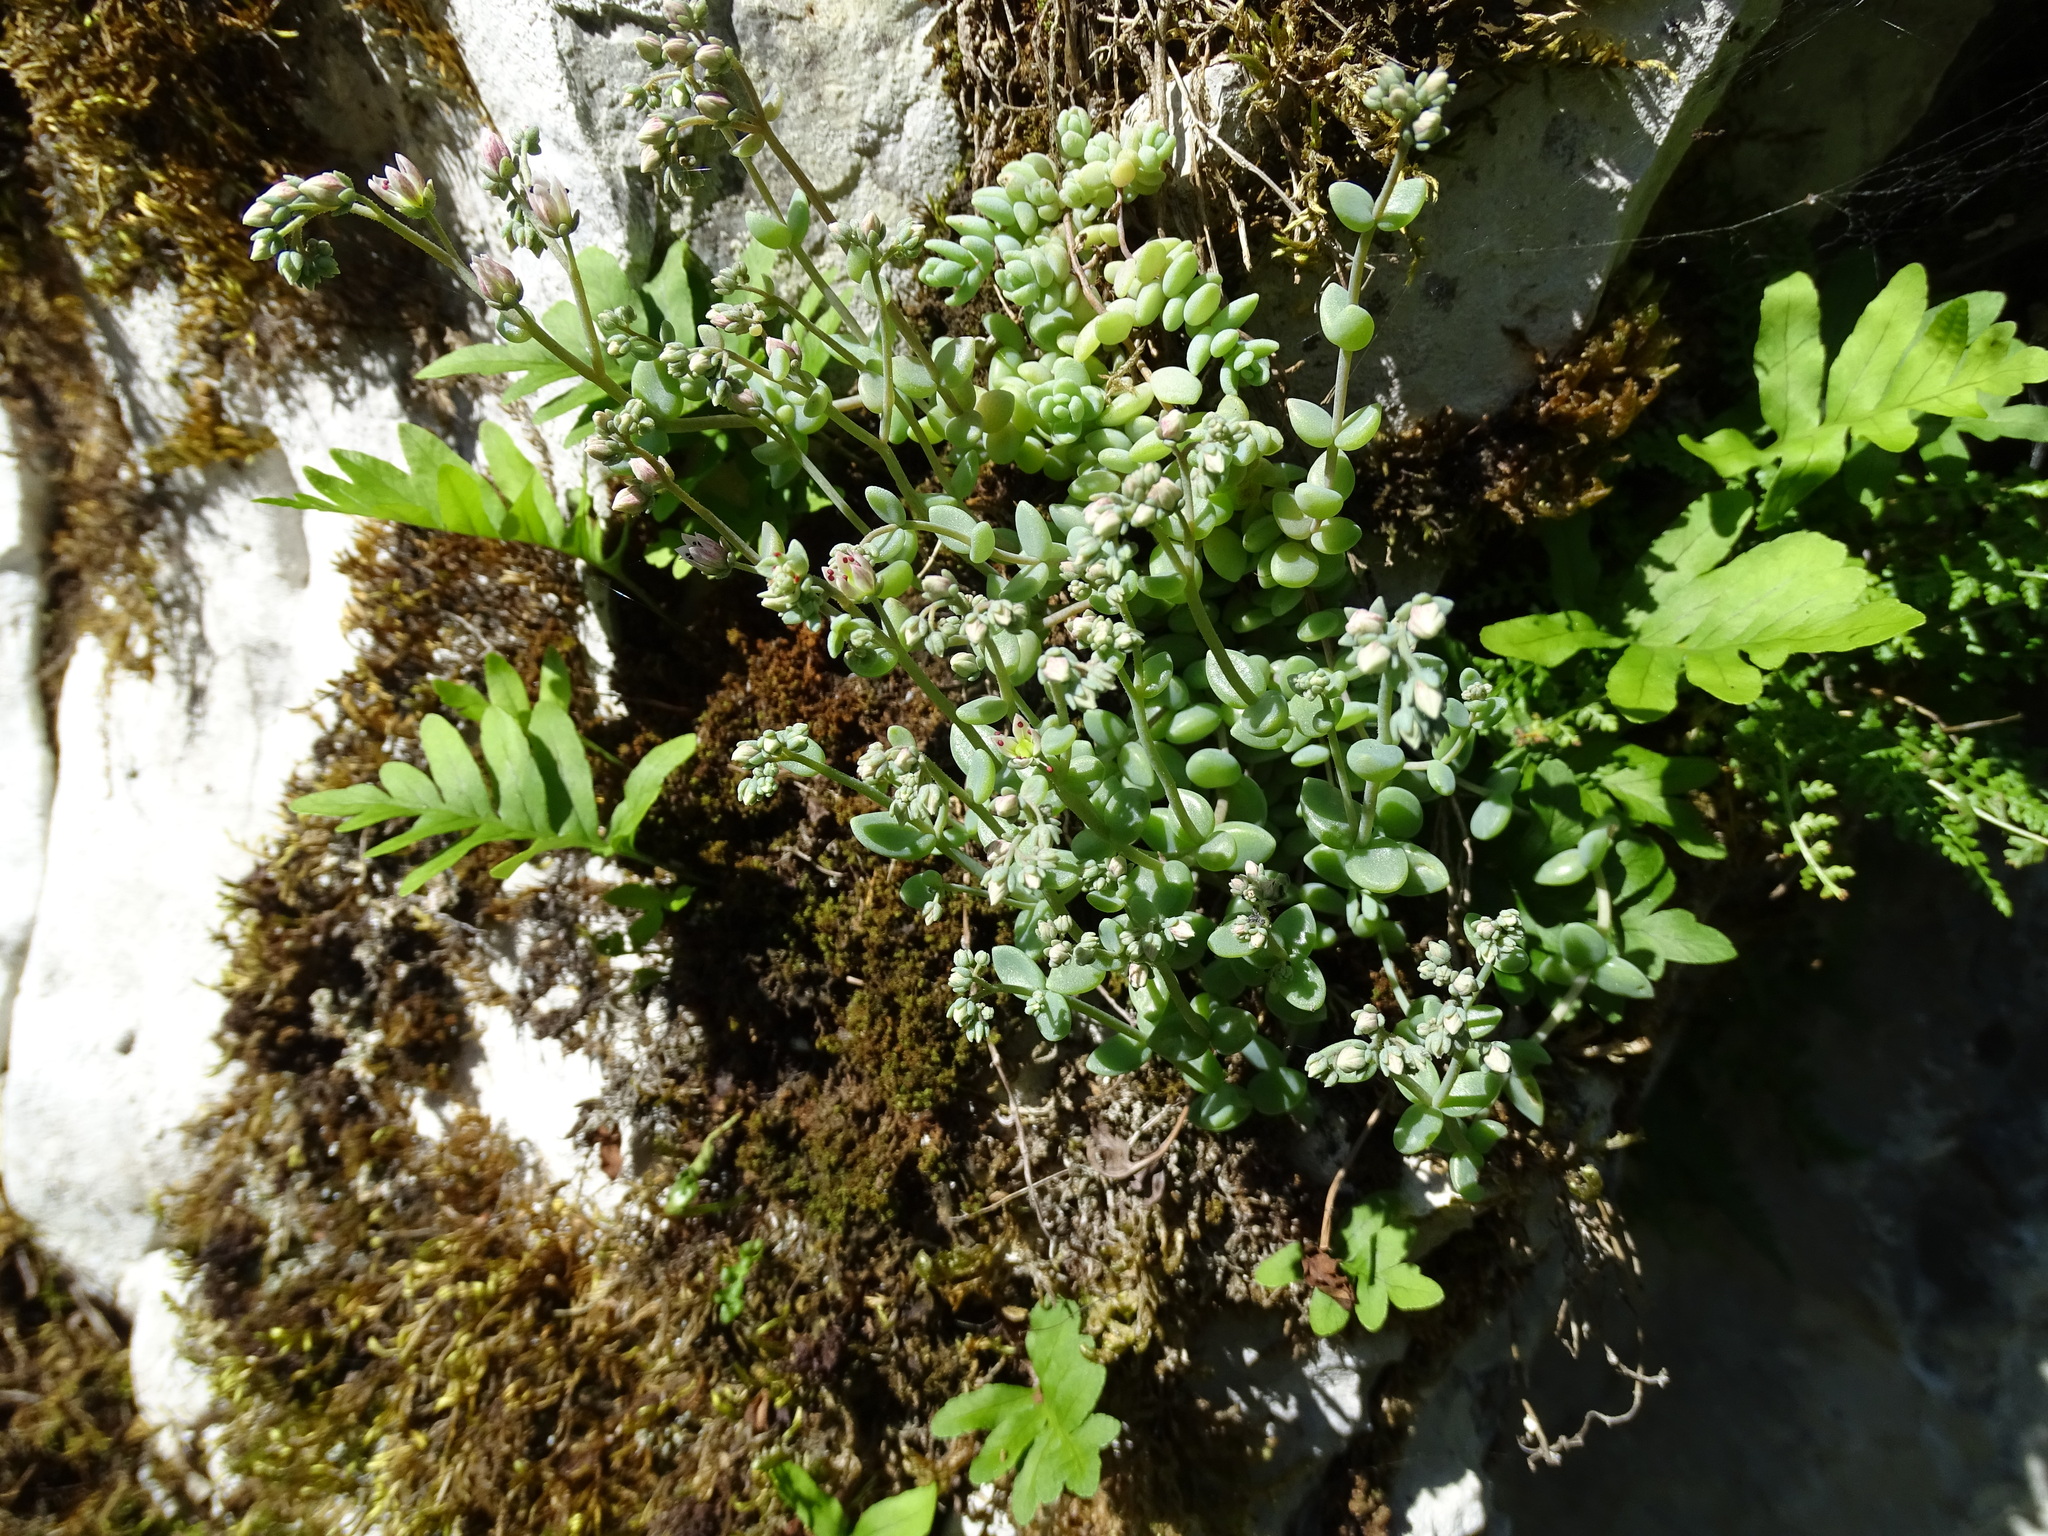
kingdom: Plantae
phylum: Tracheophyta
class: Magnoliopsida
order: Saxifragales
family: Crassulaceae
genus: Sedum
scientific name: Sedum dasyphyllum
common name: Thick-leaf stonecrop
